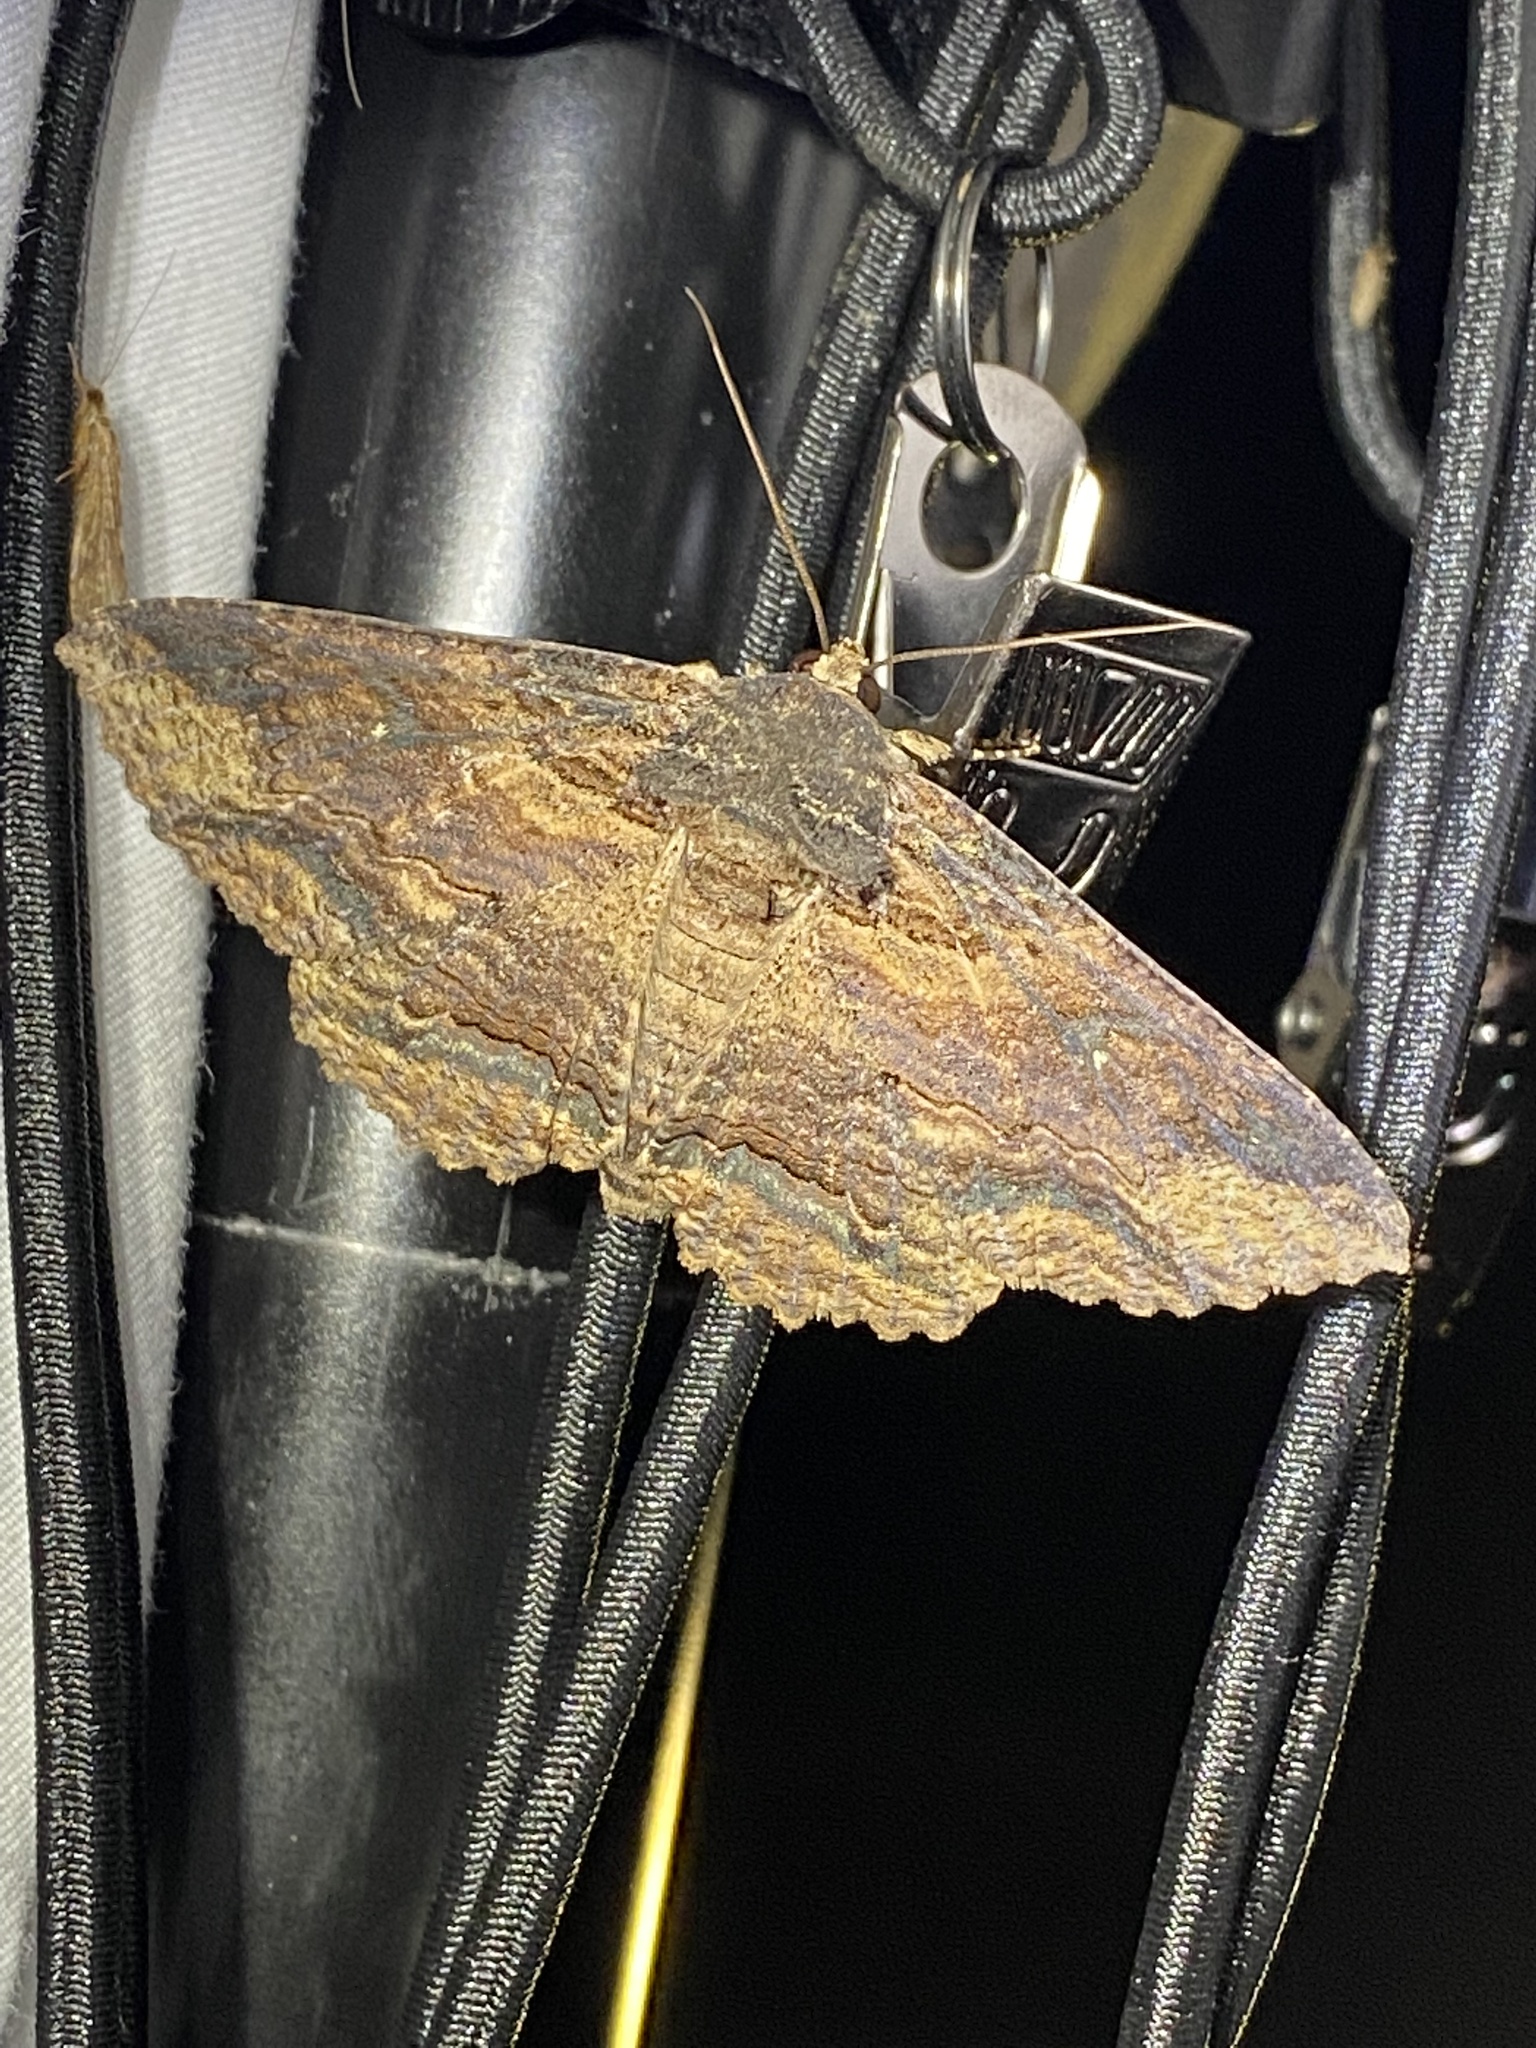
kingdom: Animalia
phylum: Arthropoda
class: Insecta
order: Lepidoptera
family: Erebidae
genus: Zale
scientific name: Zale lunata
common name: Lunate zale moth
